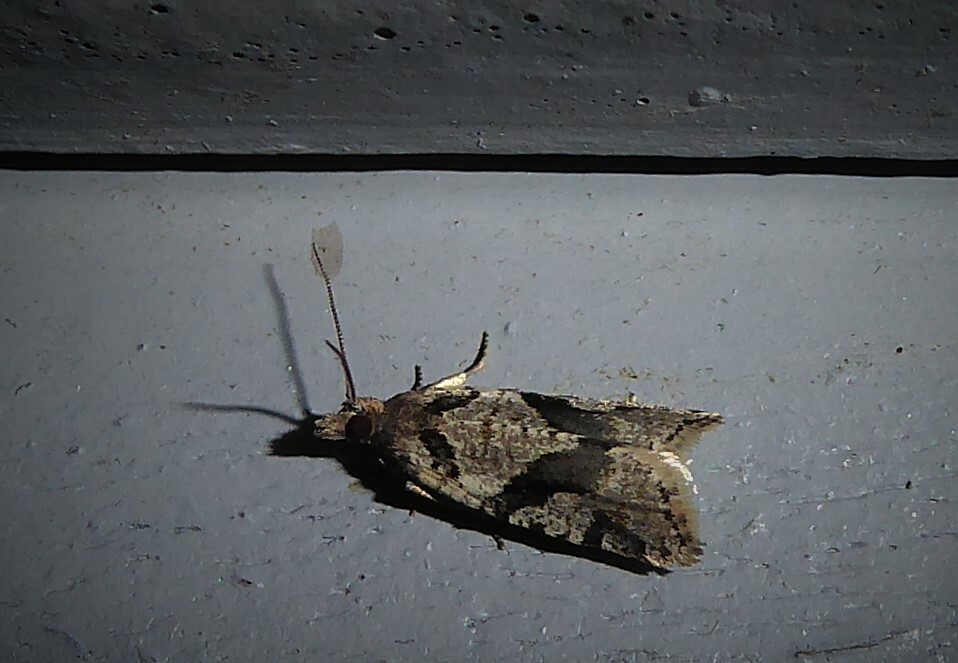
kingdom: Animalia
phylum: Arthropoda
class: Insecta
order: Lepidoptera
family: Tortricidae
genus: Capua
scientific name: Capua semiferana
